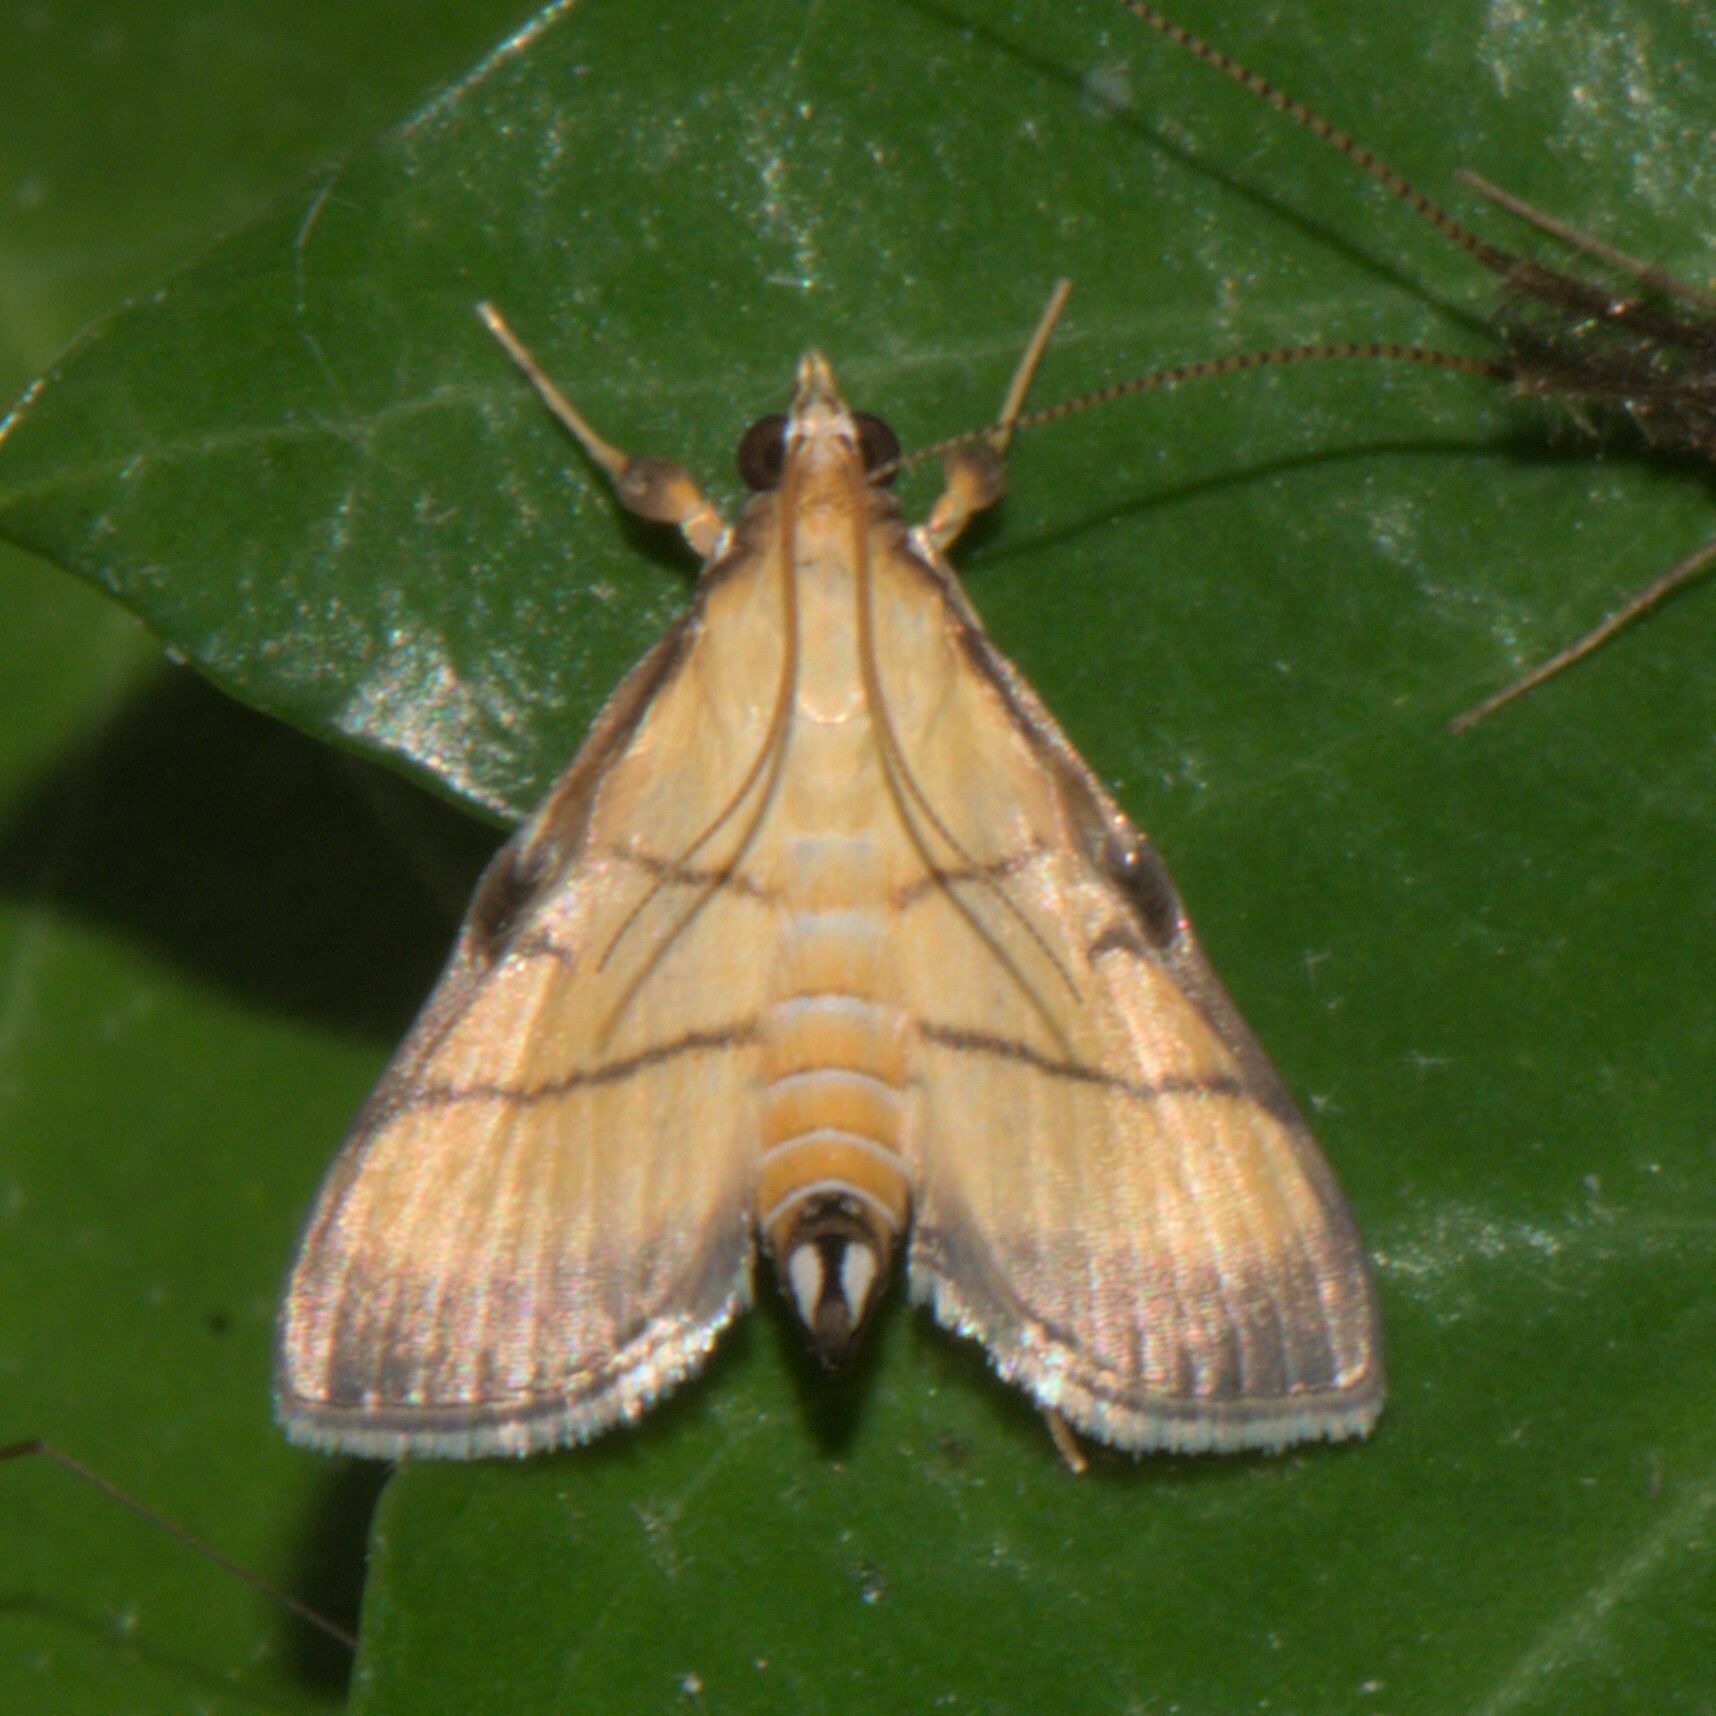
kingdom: Animalia
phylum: Arthropoda
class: Insecta
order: Lepidoptera
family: Crambidae
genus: Cnaphalocrocis
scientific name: Cnaphalocrocis medinalis
